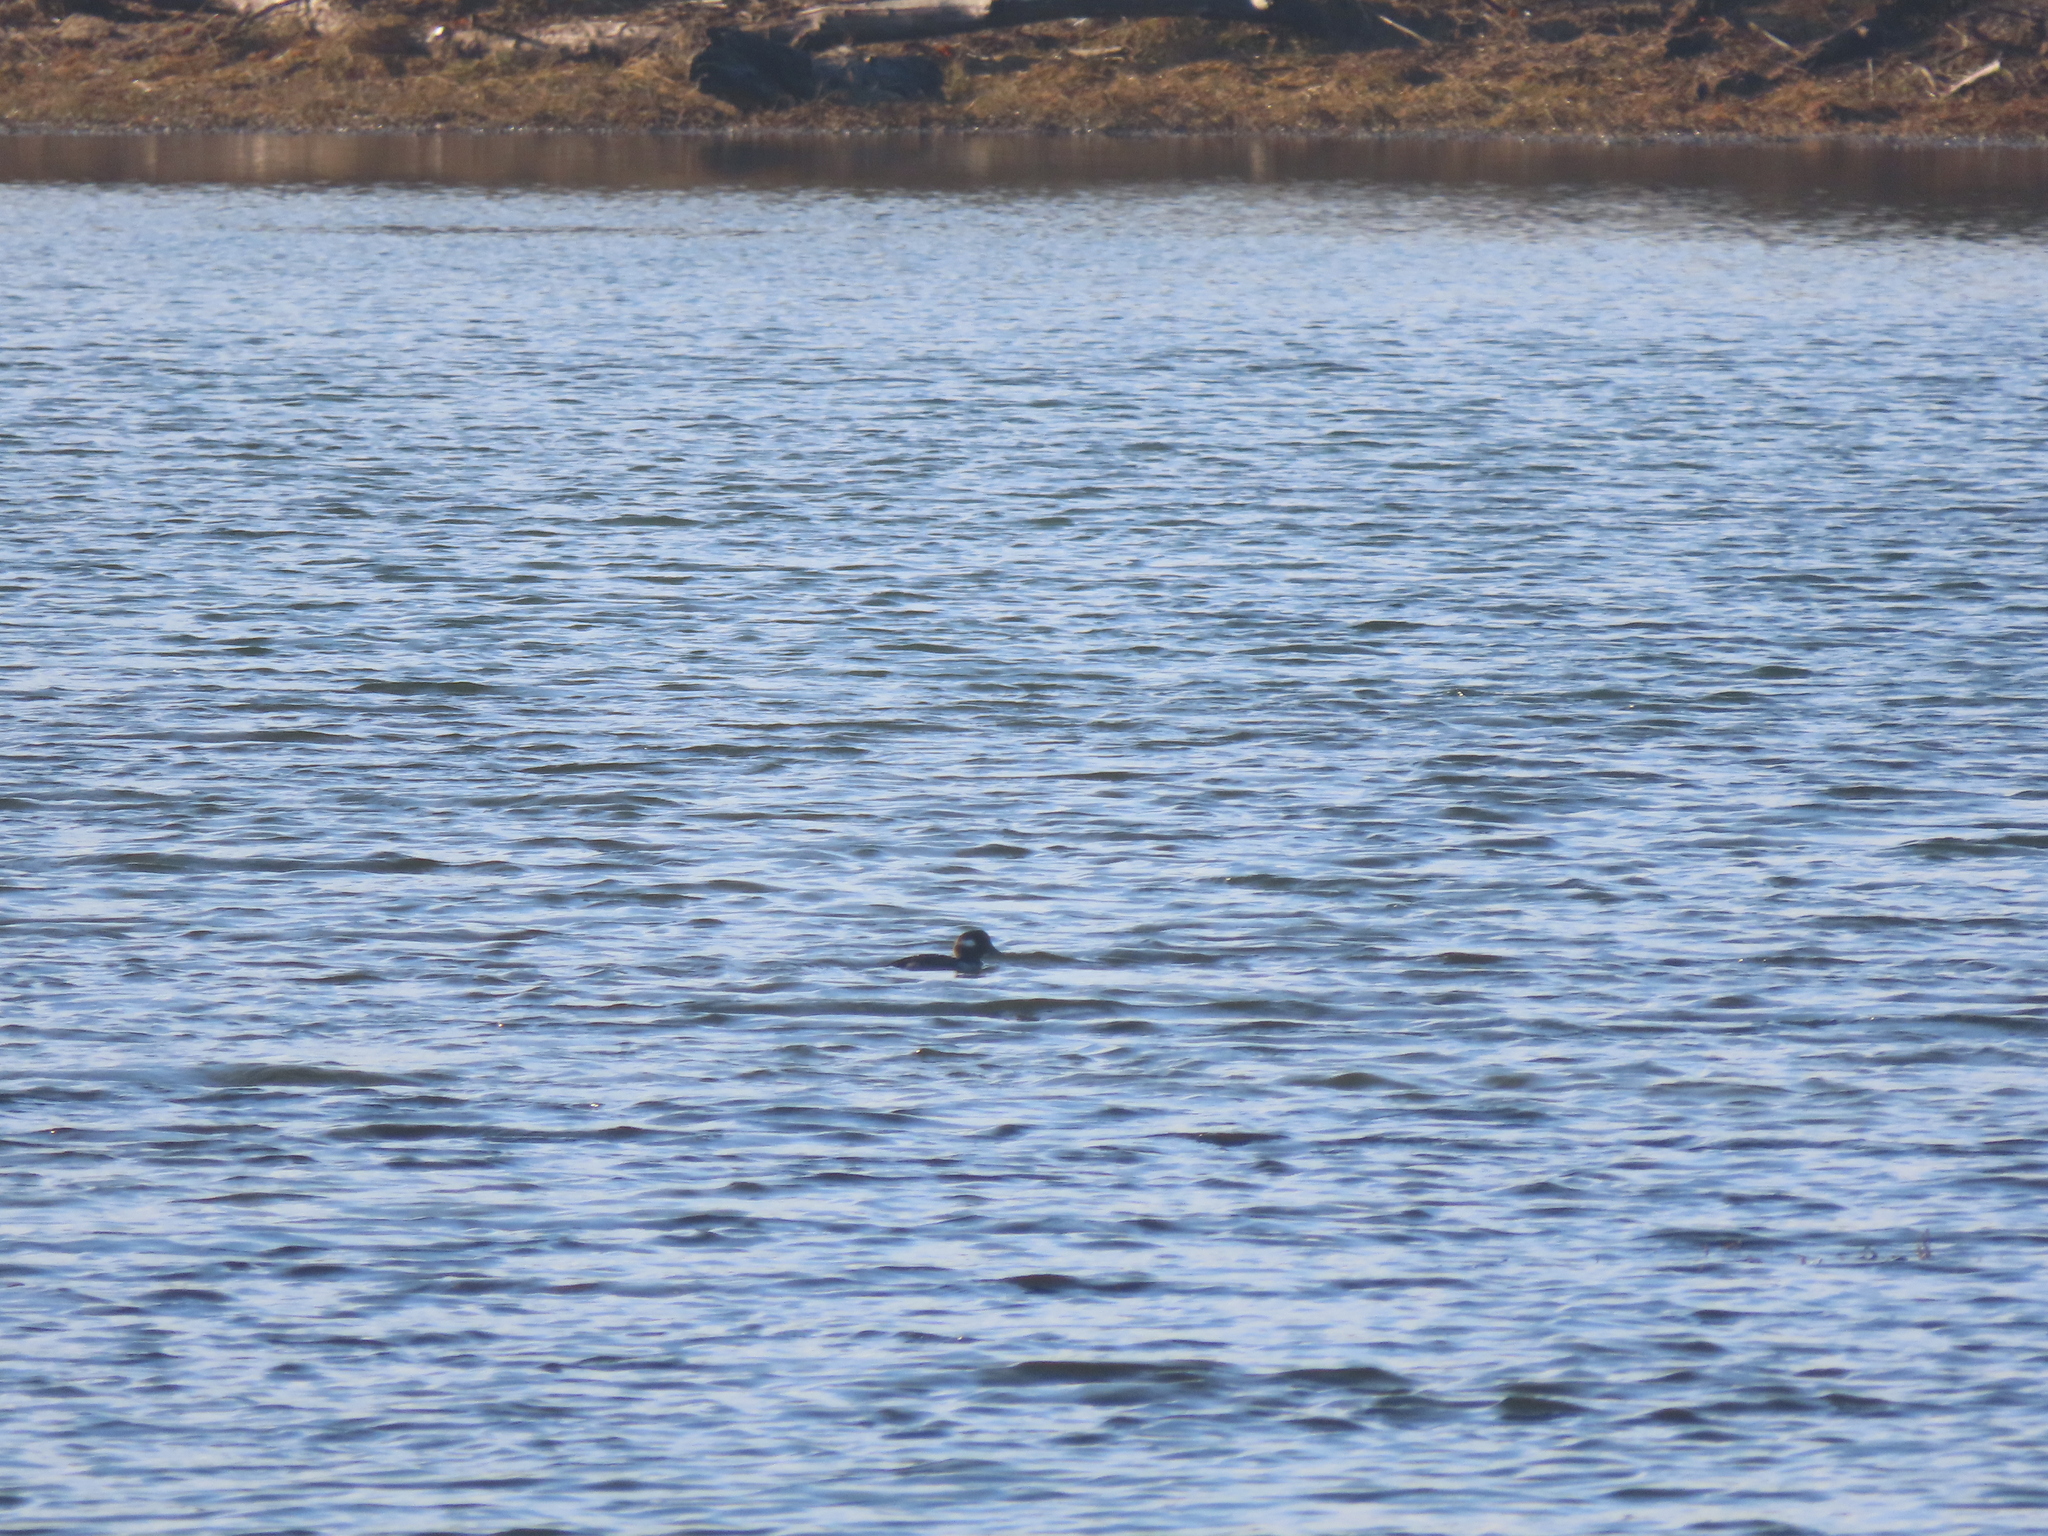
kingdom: Animalia
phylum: Chordata
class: Aves
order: Anseriformes
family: Anatidae
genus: Bucephala
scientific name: Bucephala albeola
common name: Bufflehead
